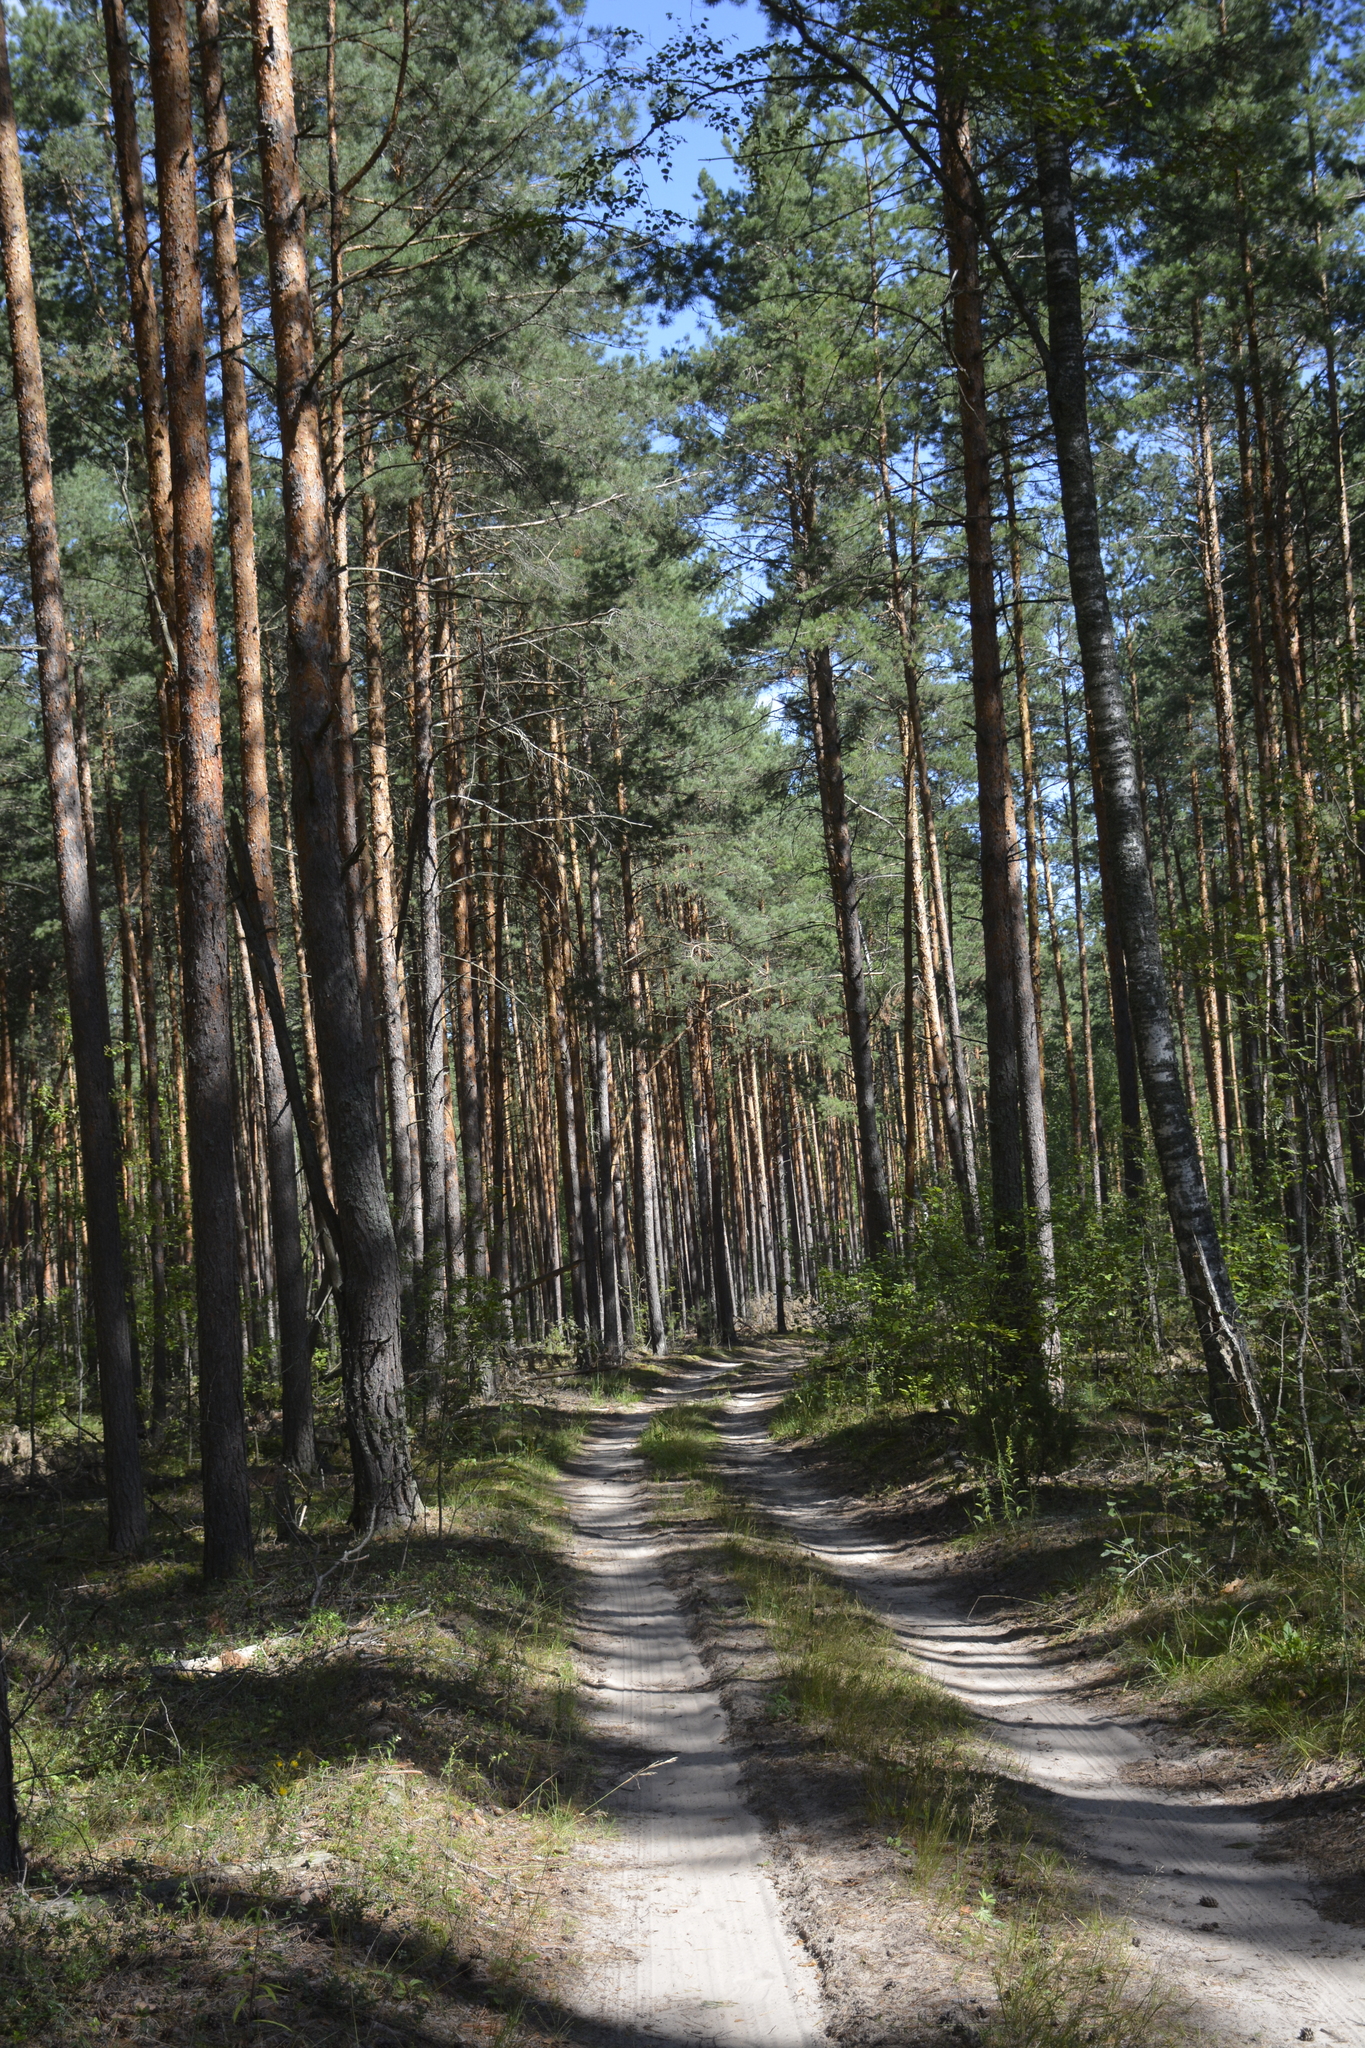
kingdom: Plantae
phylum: Tracheophyta
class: Pinopsida
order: Pinales
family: Pinaceae
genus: Pinus
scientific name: Pinus sylvestris
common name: Scots pine
